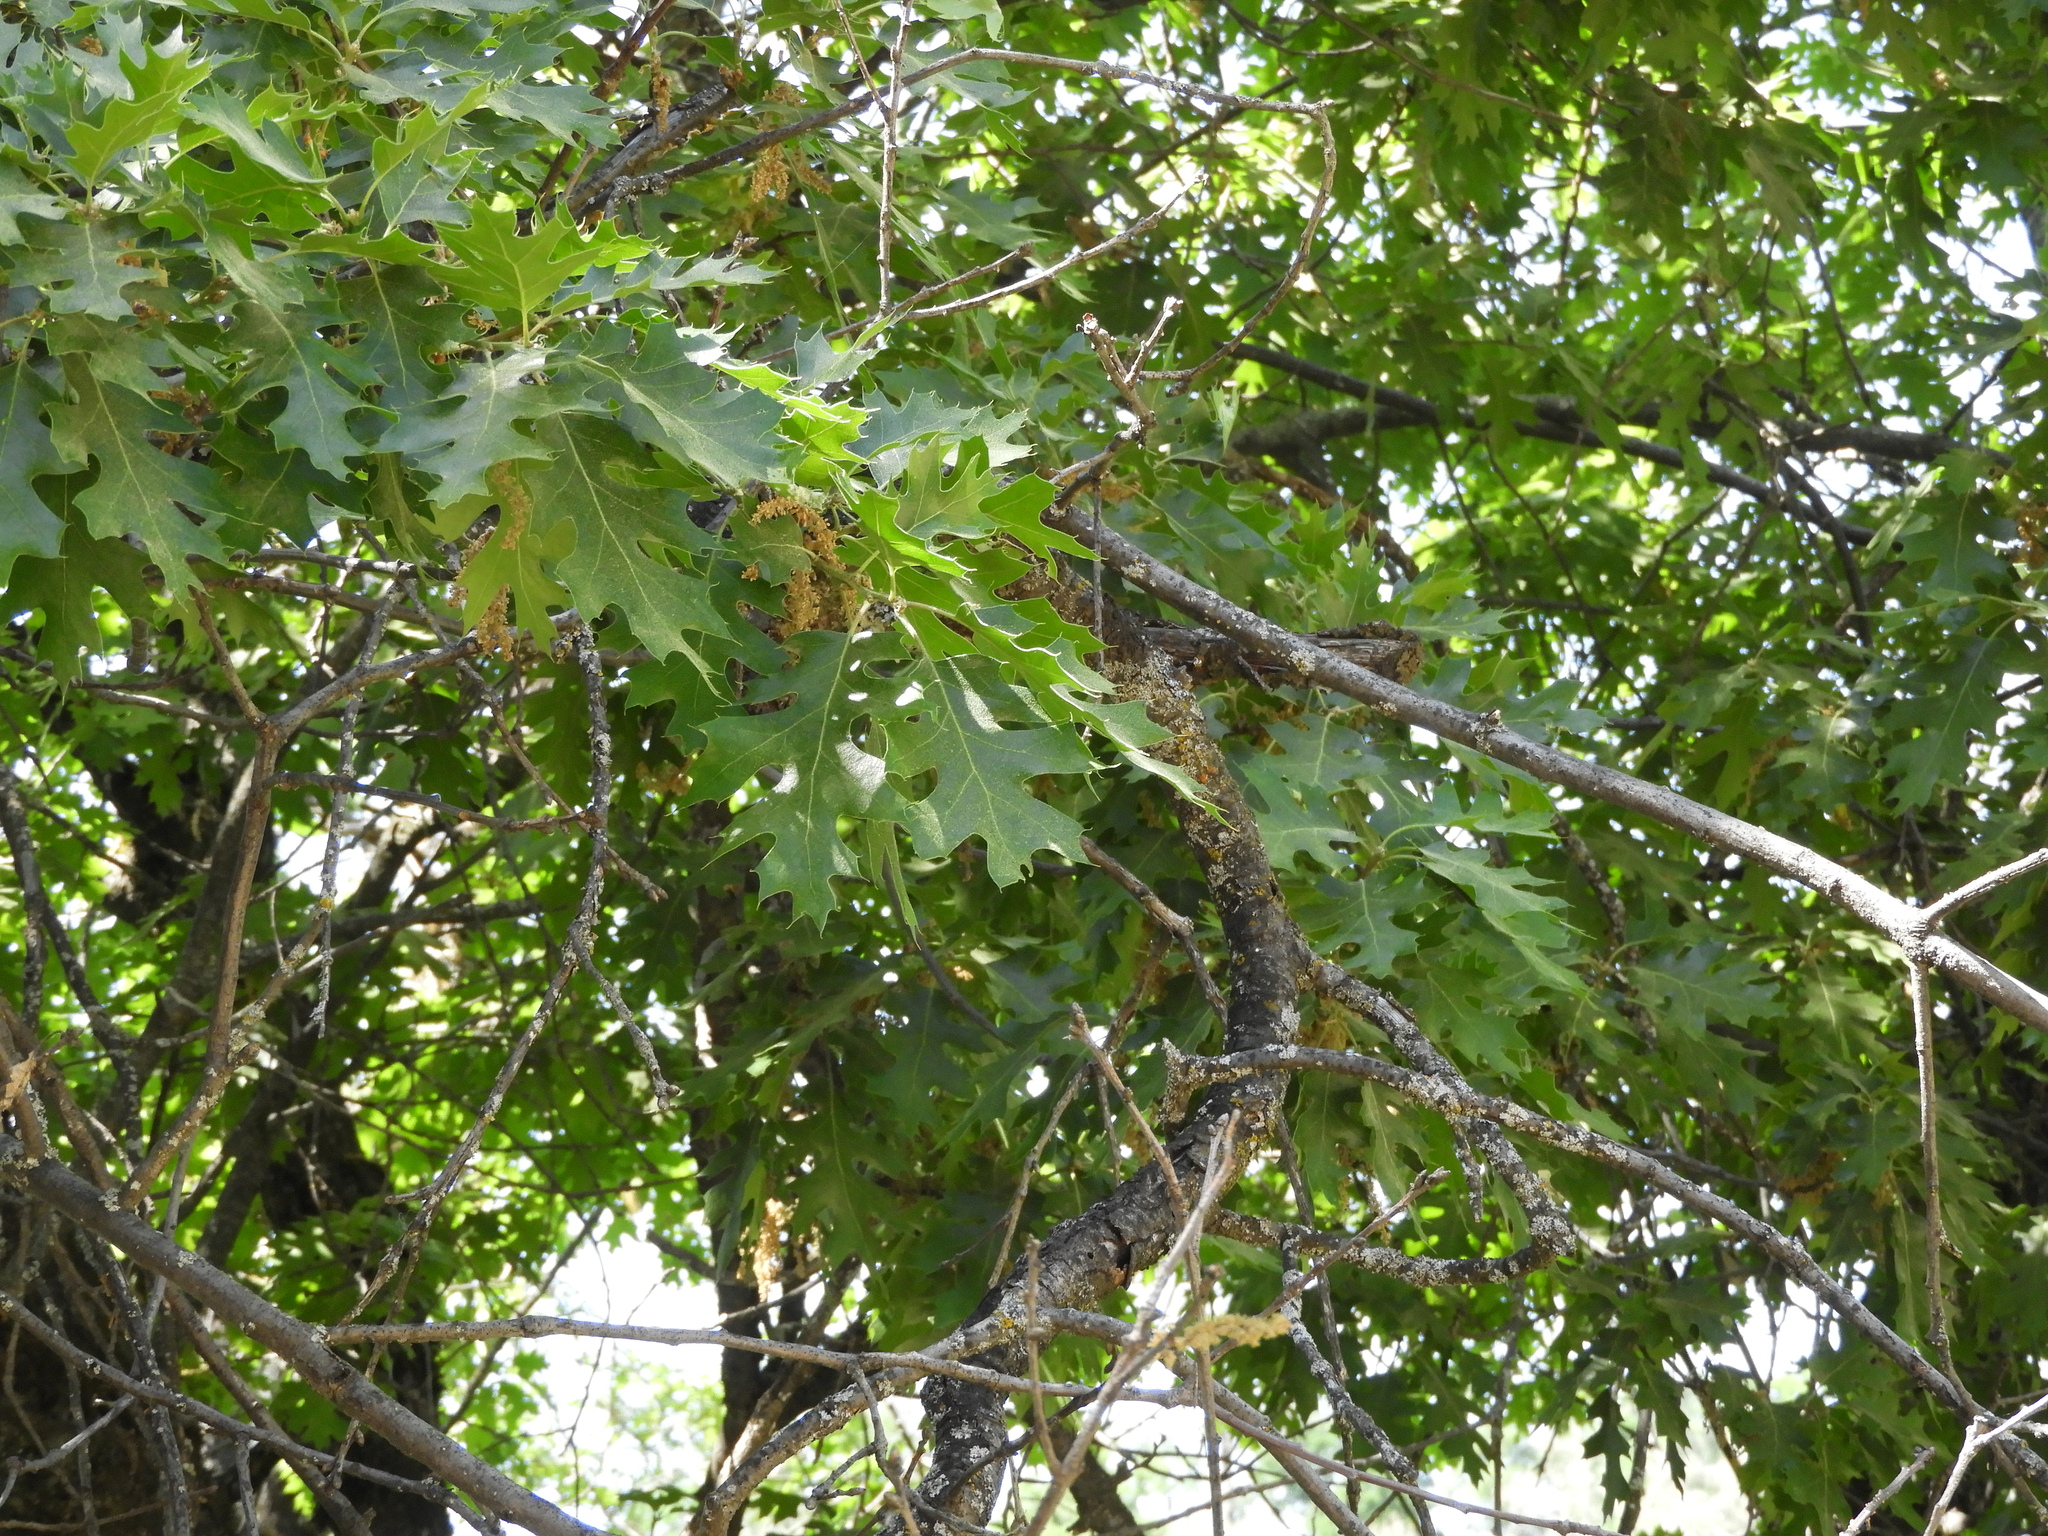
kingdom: Plantae
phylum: Tracheophyta
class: Magnoliopsida
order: Fagales
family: Fagaceae
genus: Quercus
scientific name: Quercus kelloggii
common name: California black oak
